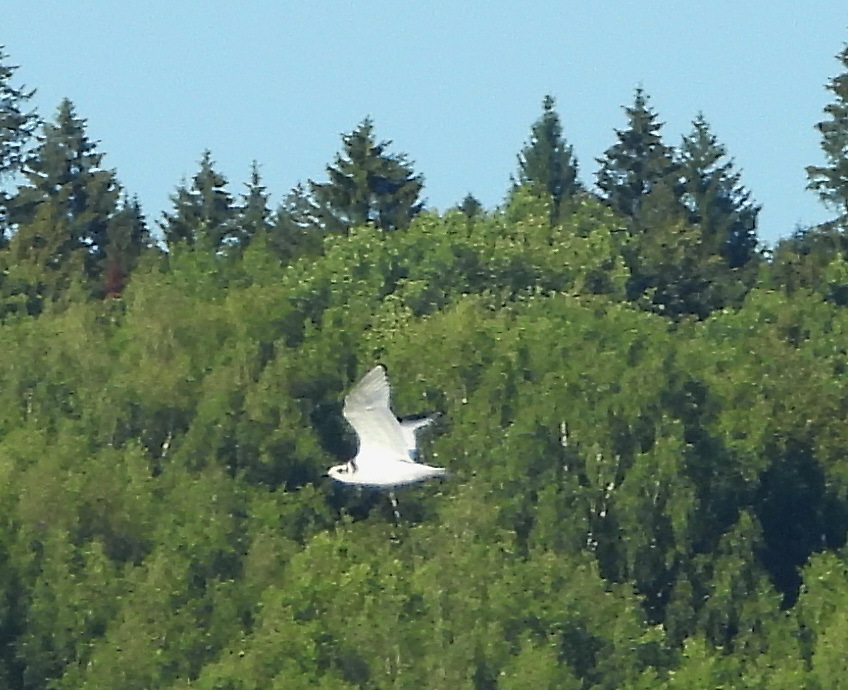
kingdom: Animalia
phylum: Chordata
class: Aves
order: Charadriiformes
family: Laridae
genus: Hydrocoloeus
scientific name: Hydrocoloeus minutus
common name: Little gull
